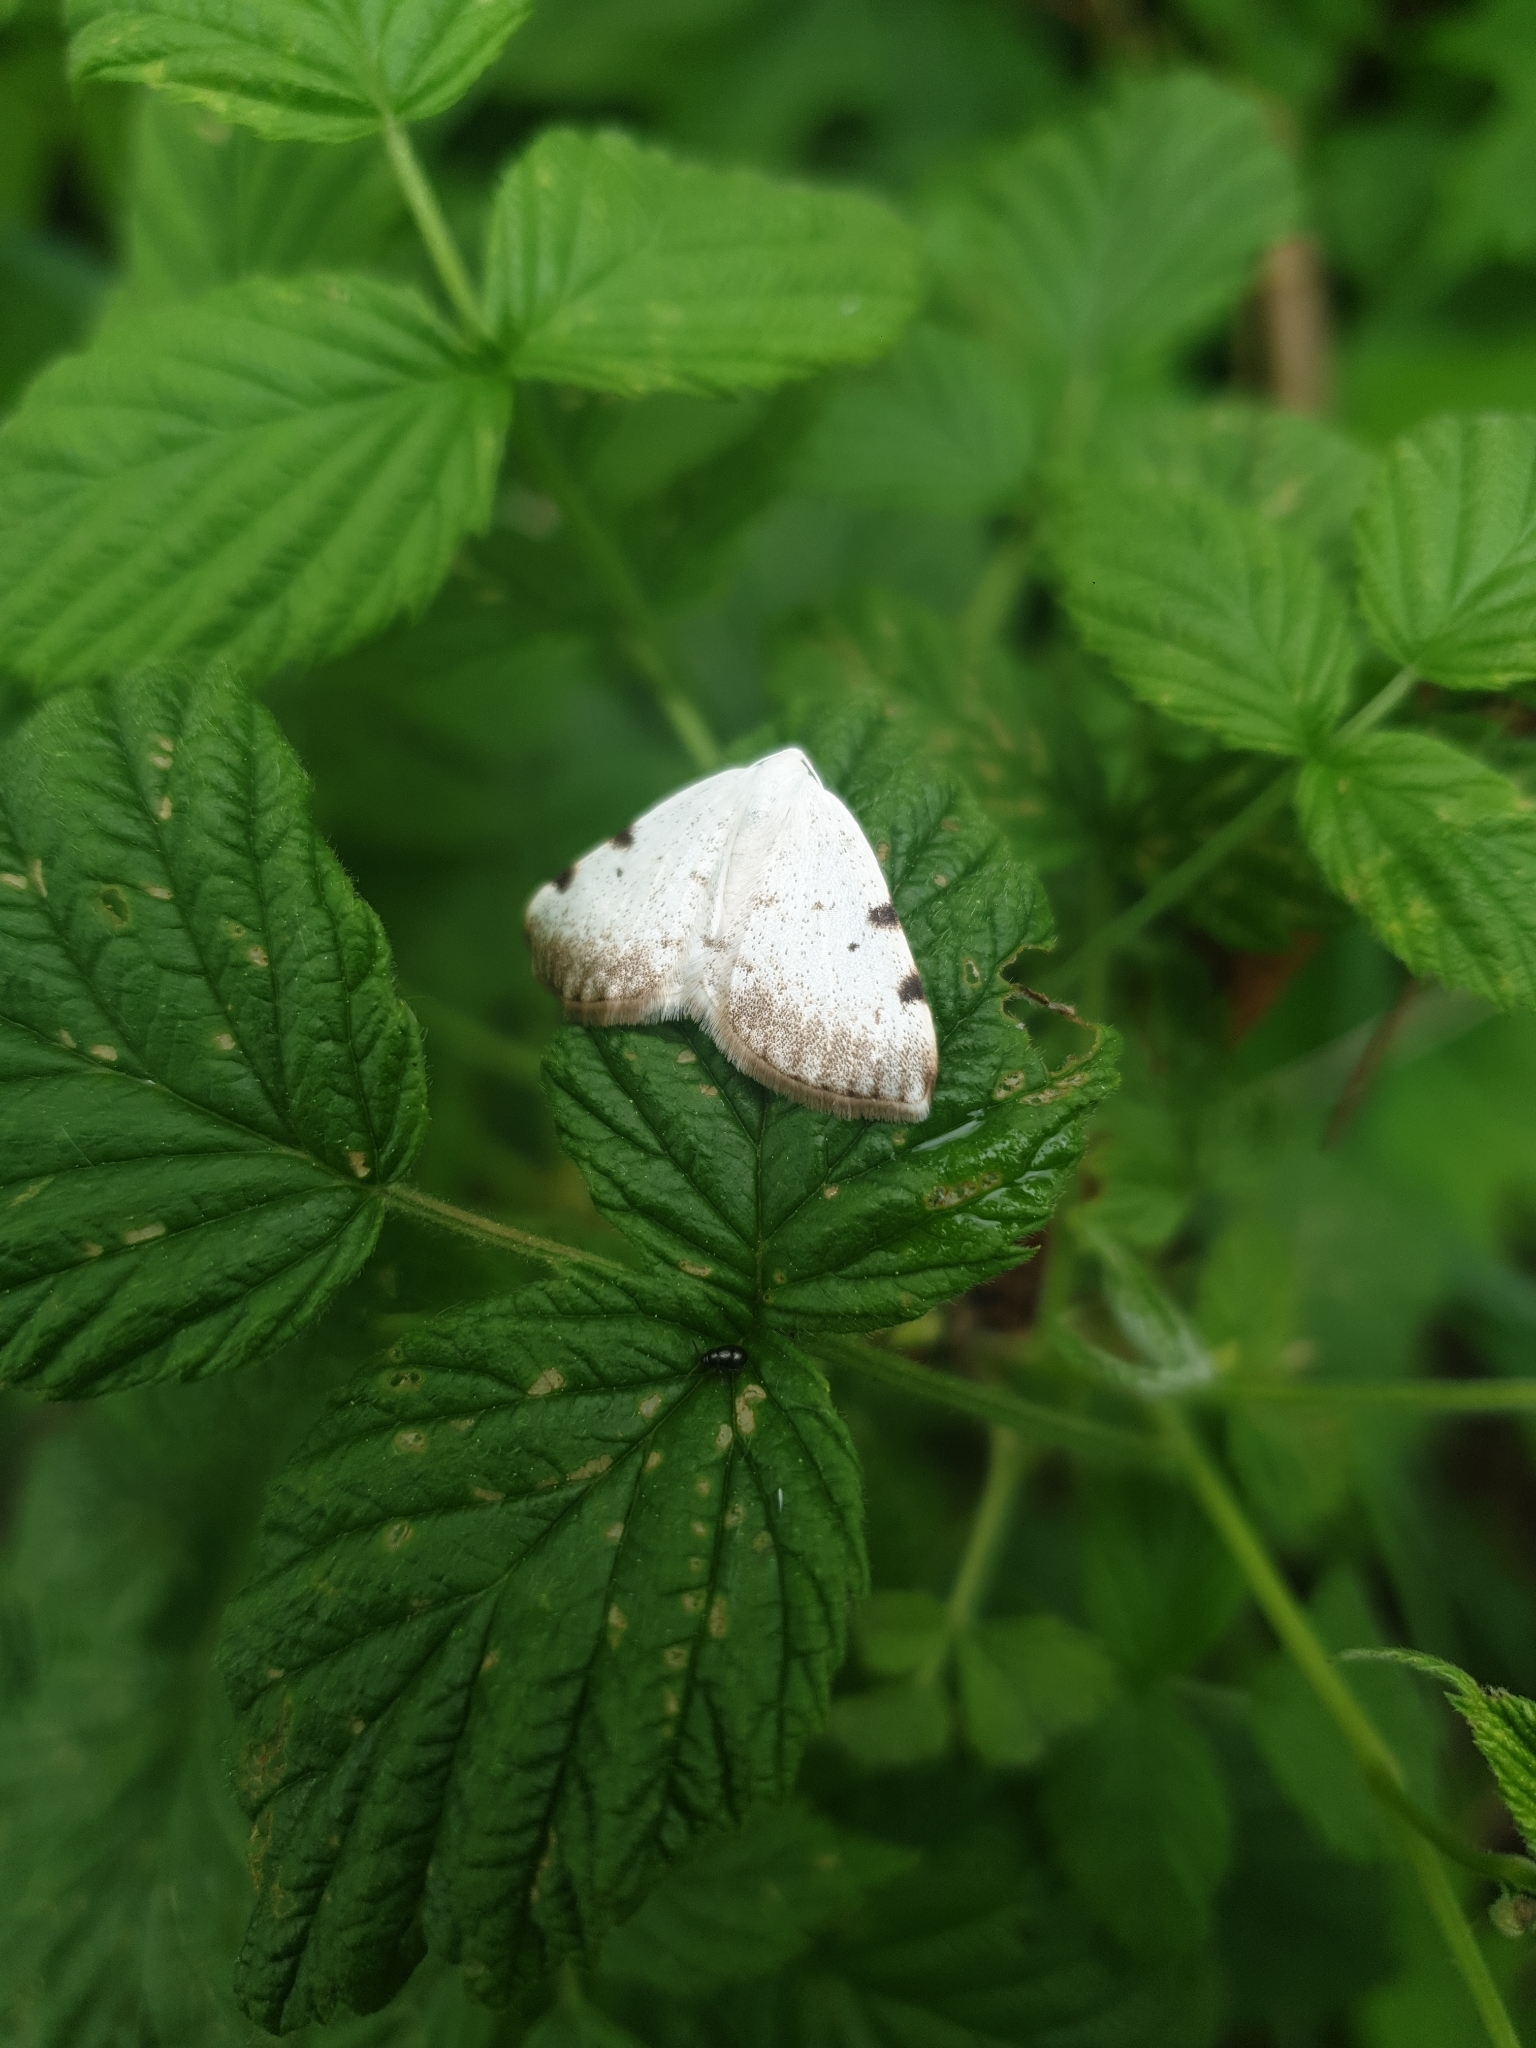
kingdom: Animalia
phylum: Arthropoda
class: Insecta
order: Lepidoptera
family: Geometridae
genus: Lomographa
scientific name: Lomographa bimaculata
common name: White-pinion spotted
